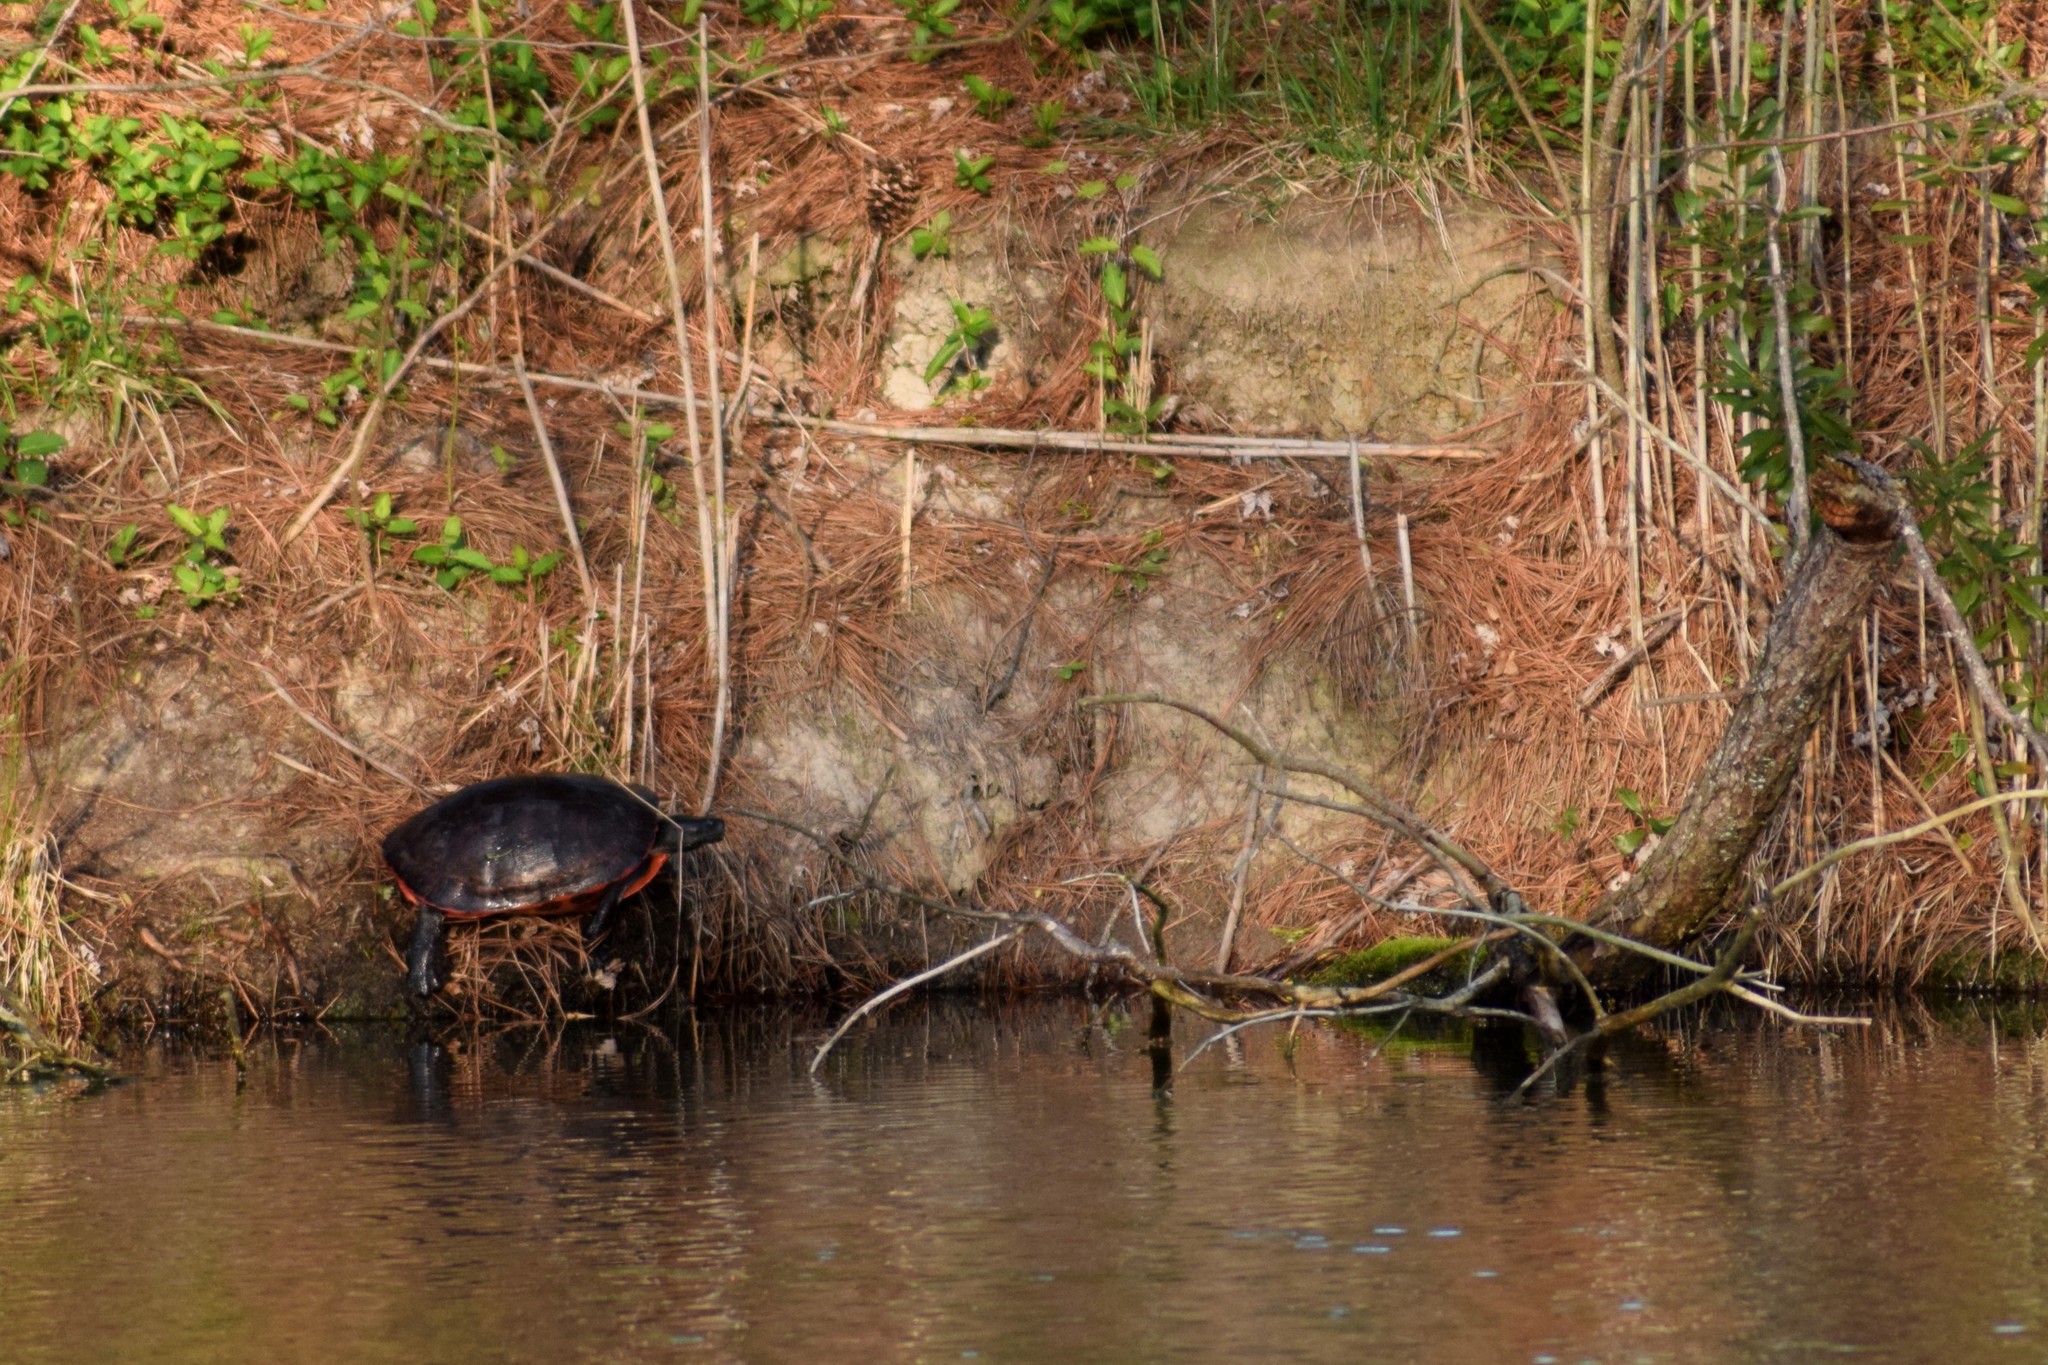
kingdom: Animalia
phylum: Chordata
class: Testudines
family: Emydidae
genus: Pseudemys
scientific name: Pseudemys rubriventris
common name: American red-bellied turtle
